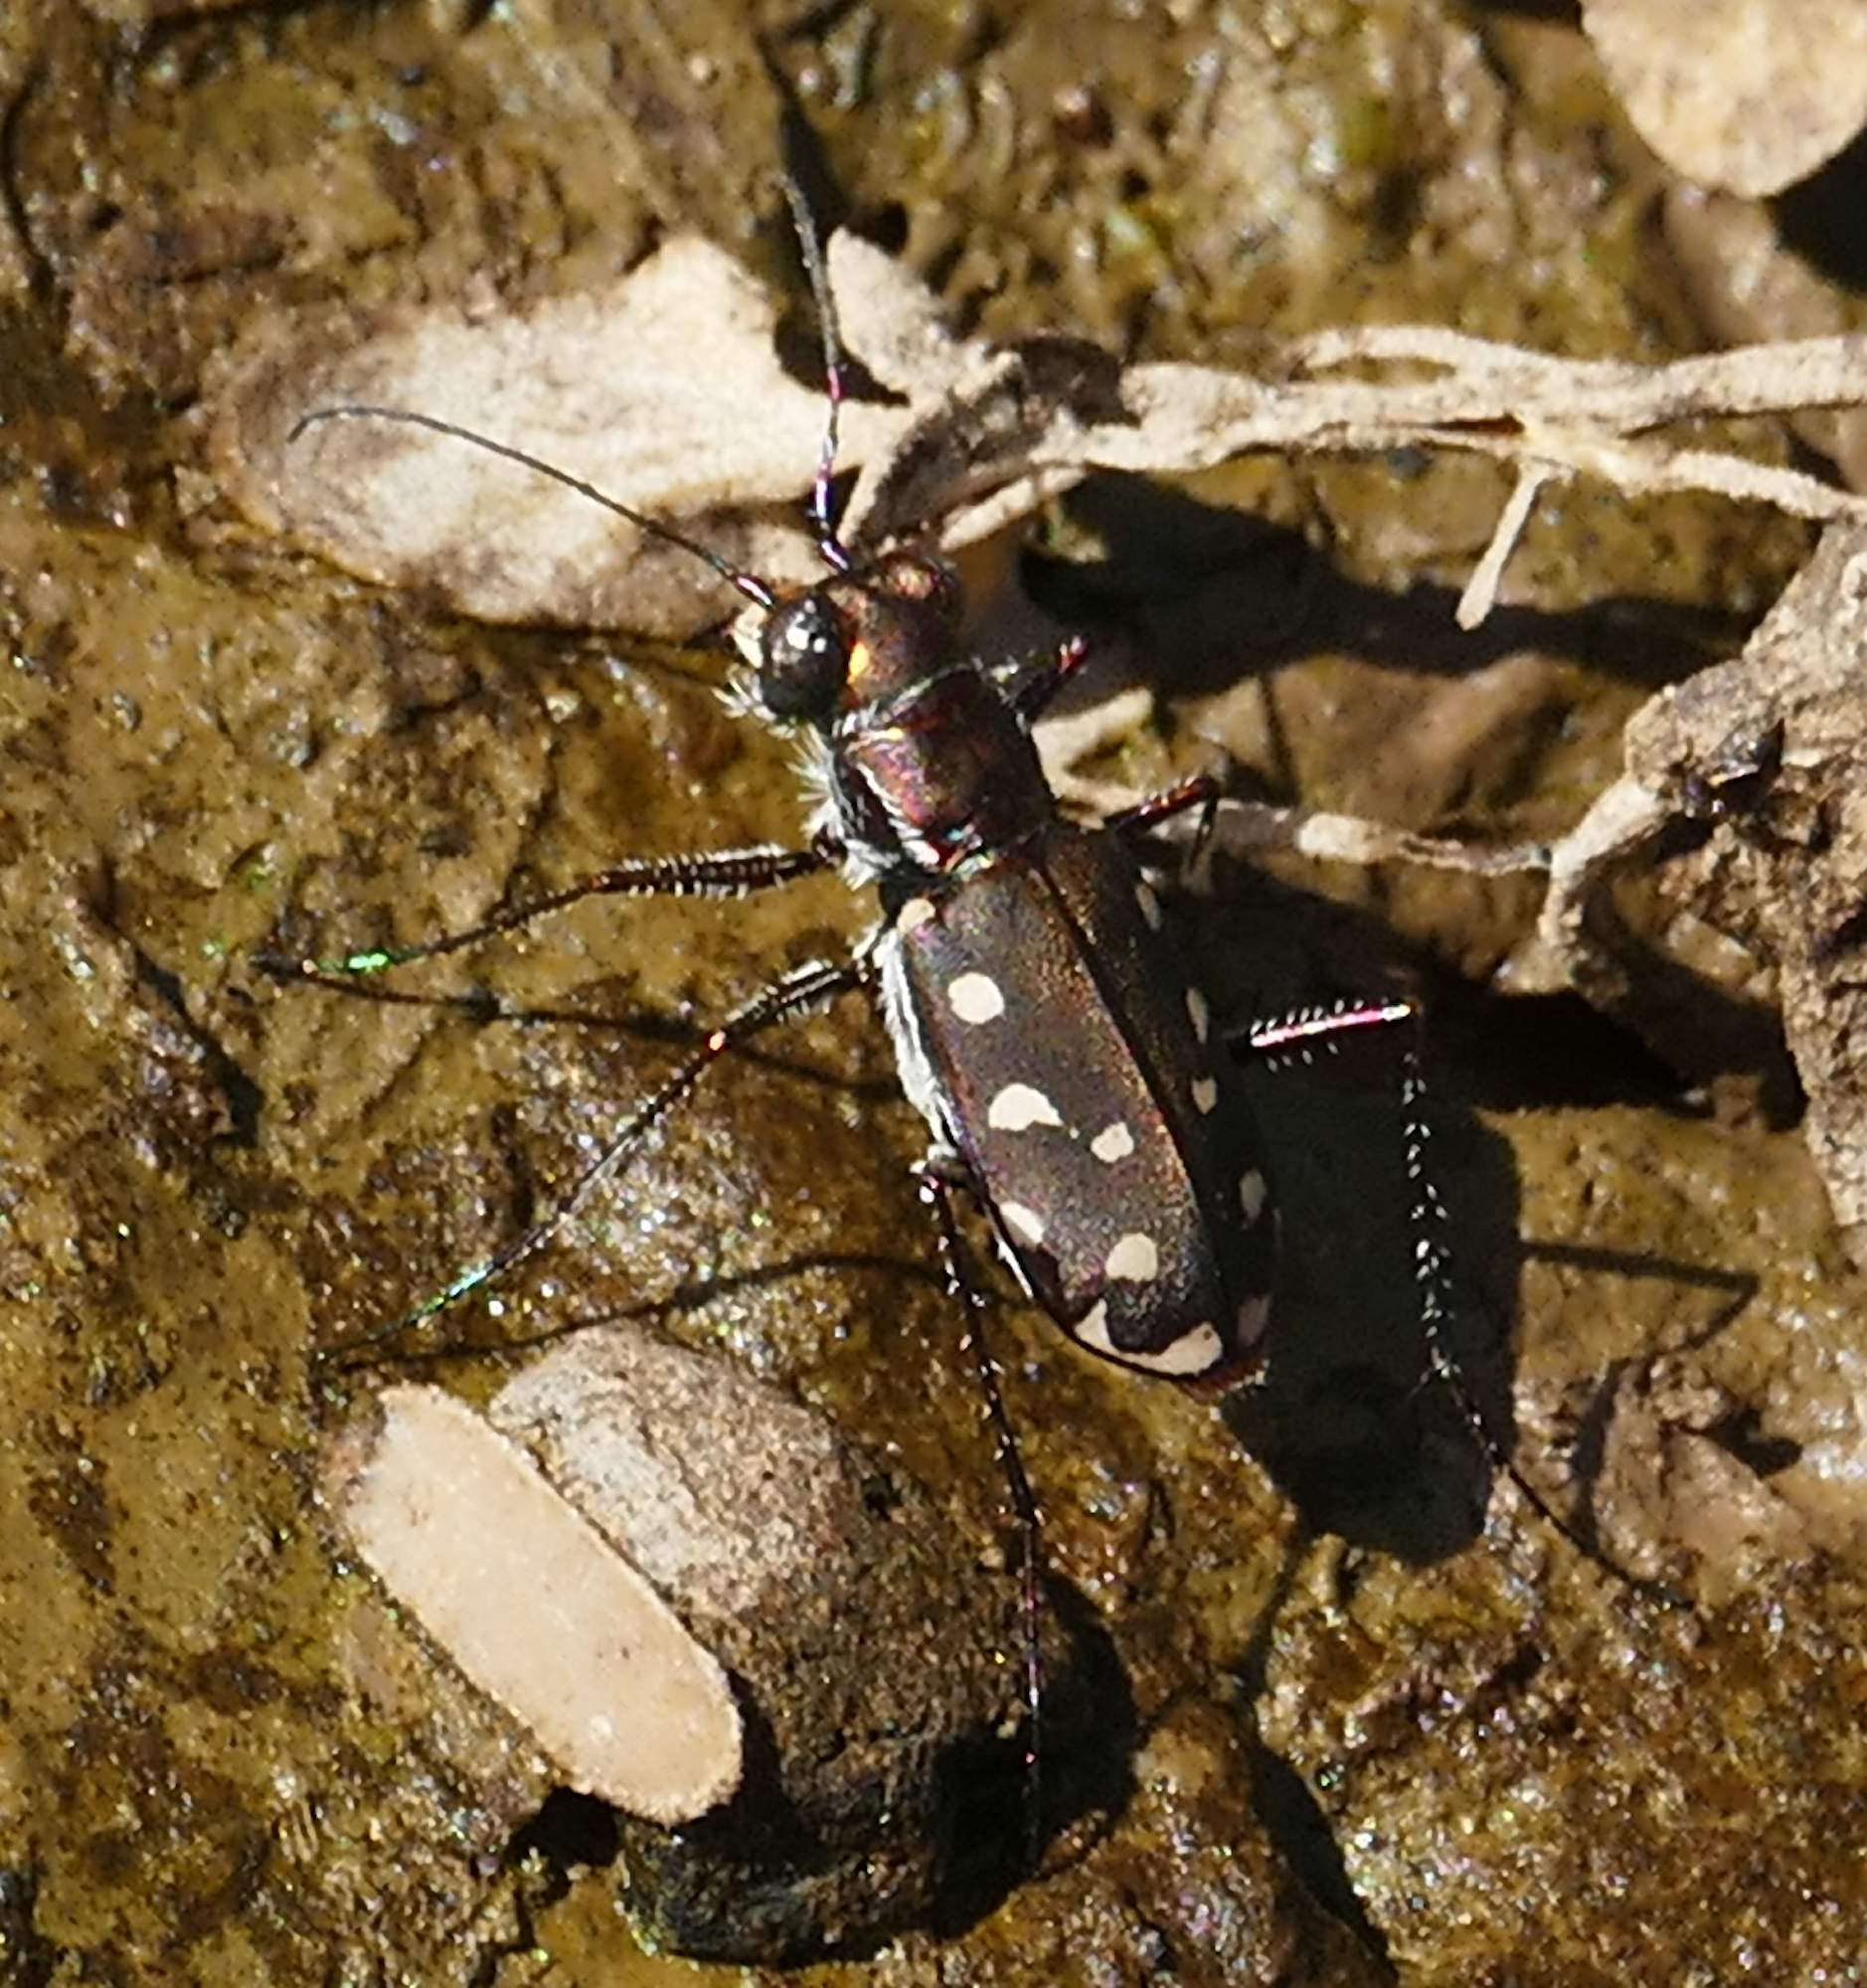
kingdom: Animalia
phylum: Arthropoda
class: Insecta
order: Coleoptera
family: Carabidae
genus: Cicindela
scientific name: Cicindela sedecimpunctata
